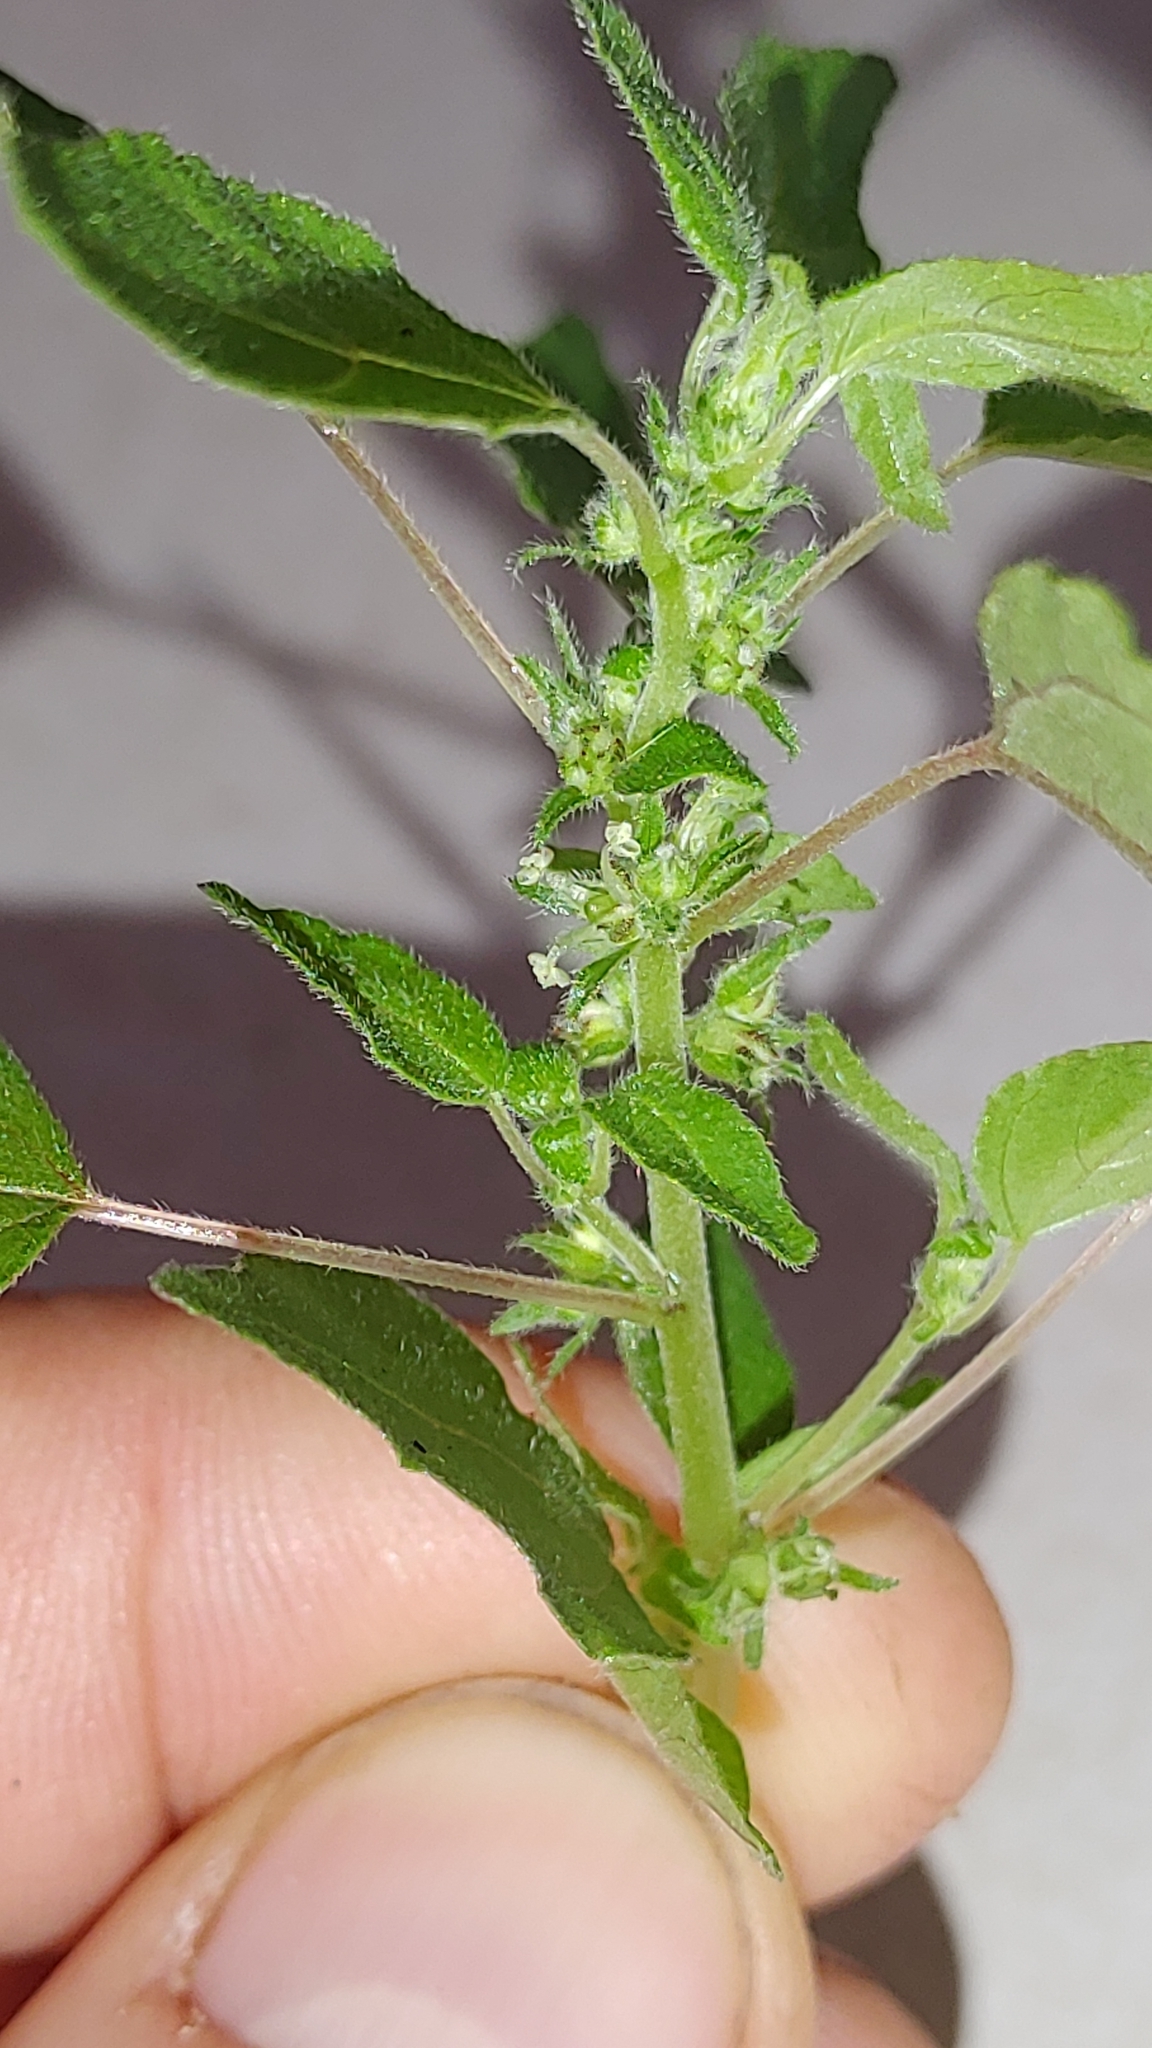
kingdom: Plantae
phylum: Tracheophyta
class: Magnoliopsida
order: Rosales
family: Urticaceae
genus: Parietaria
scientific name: Parietaria praetermissa
